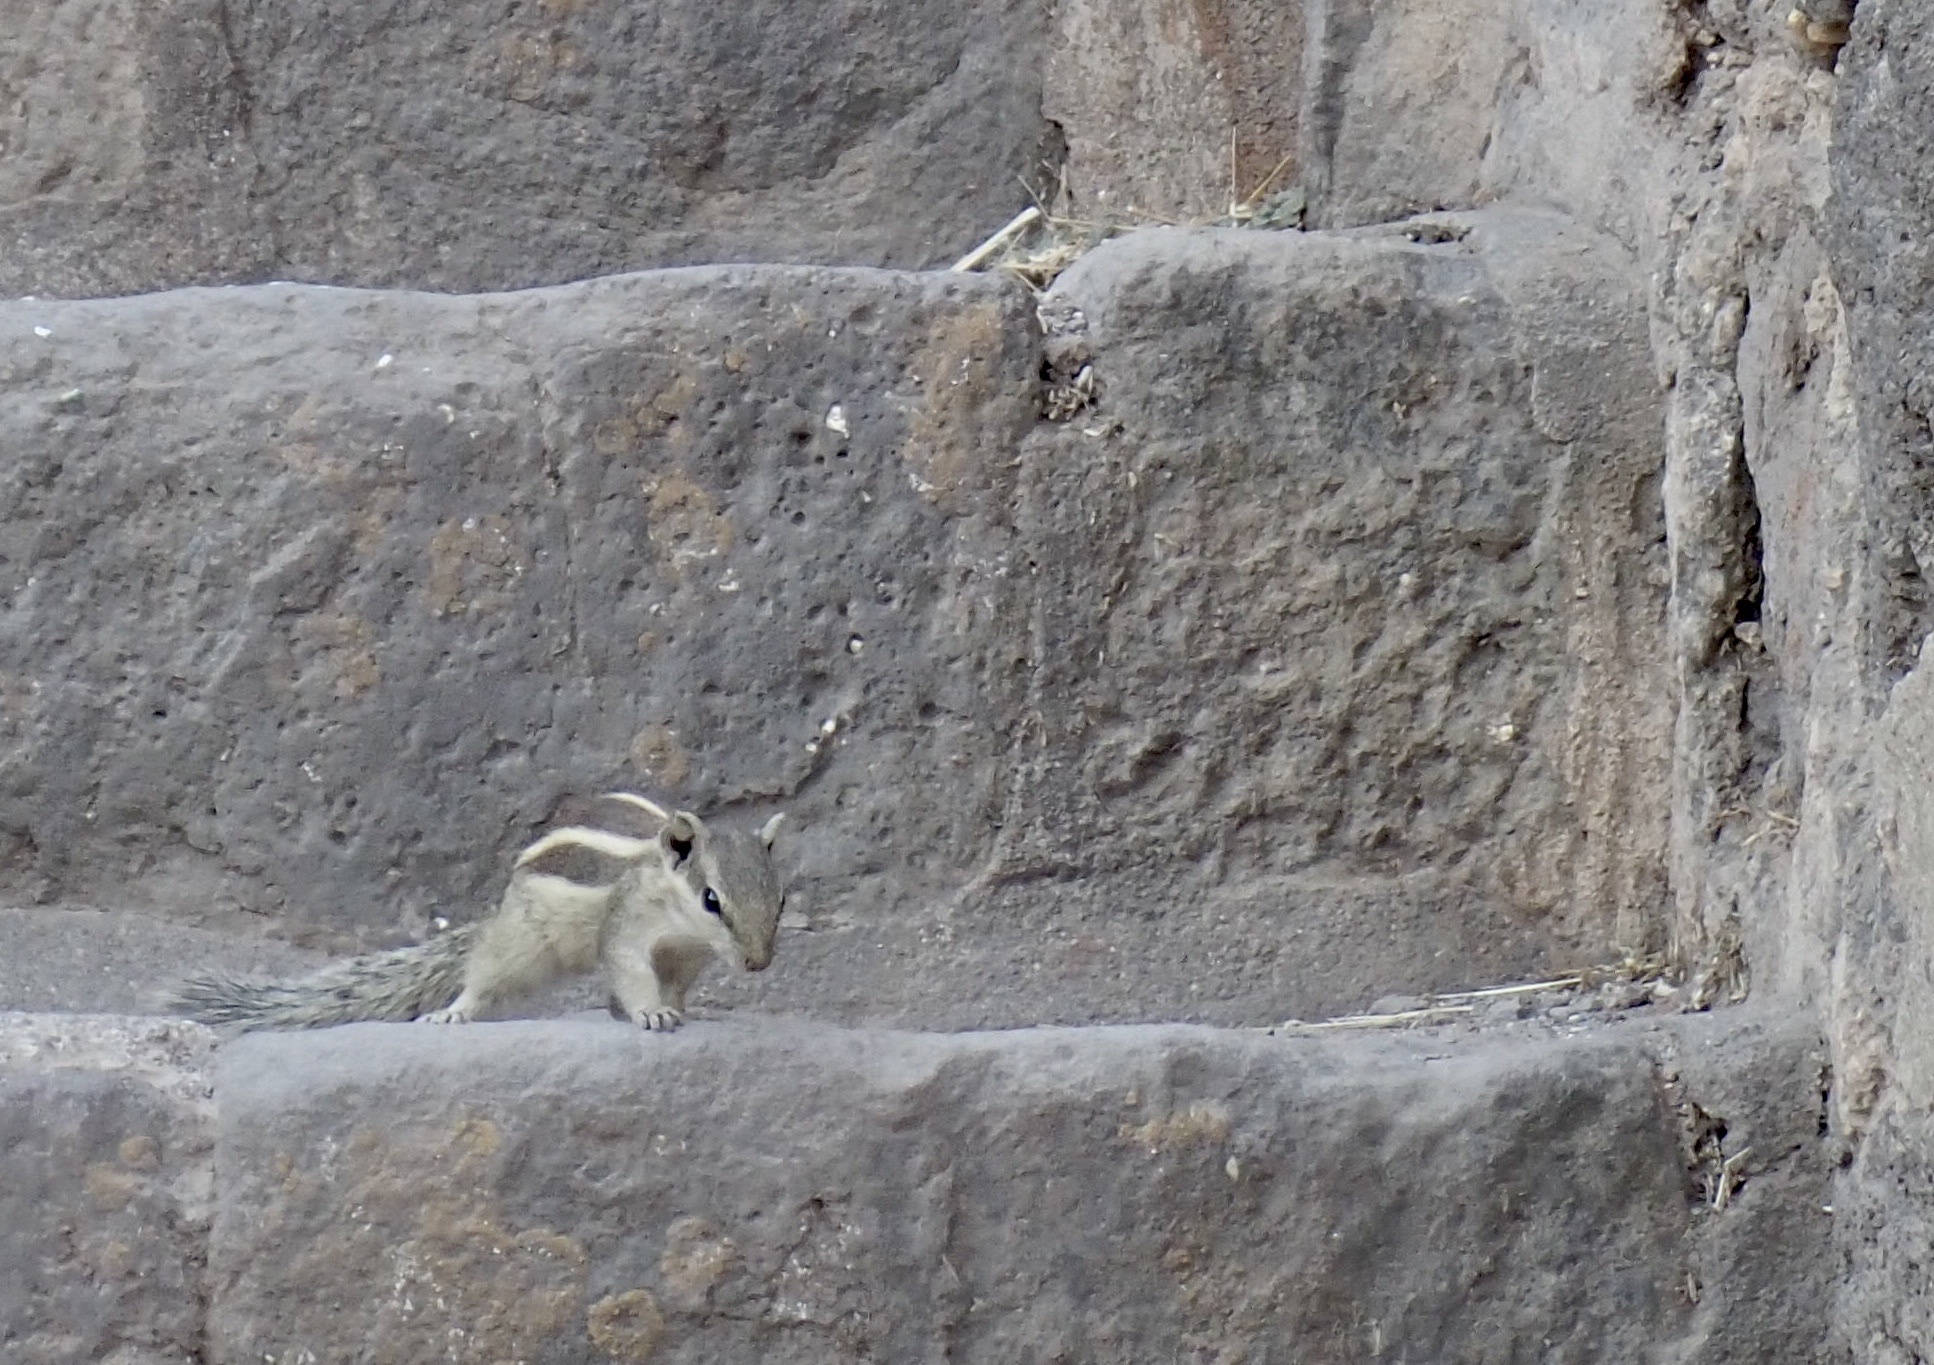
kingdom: Animalia
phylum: Chordata
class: Mammalia
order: Rodentia
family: Sciuridae
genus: Funambulus
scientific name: Funambulus pennantii
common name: Northern palm squirrel
